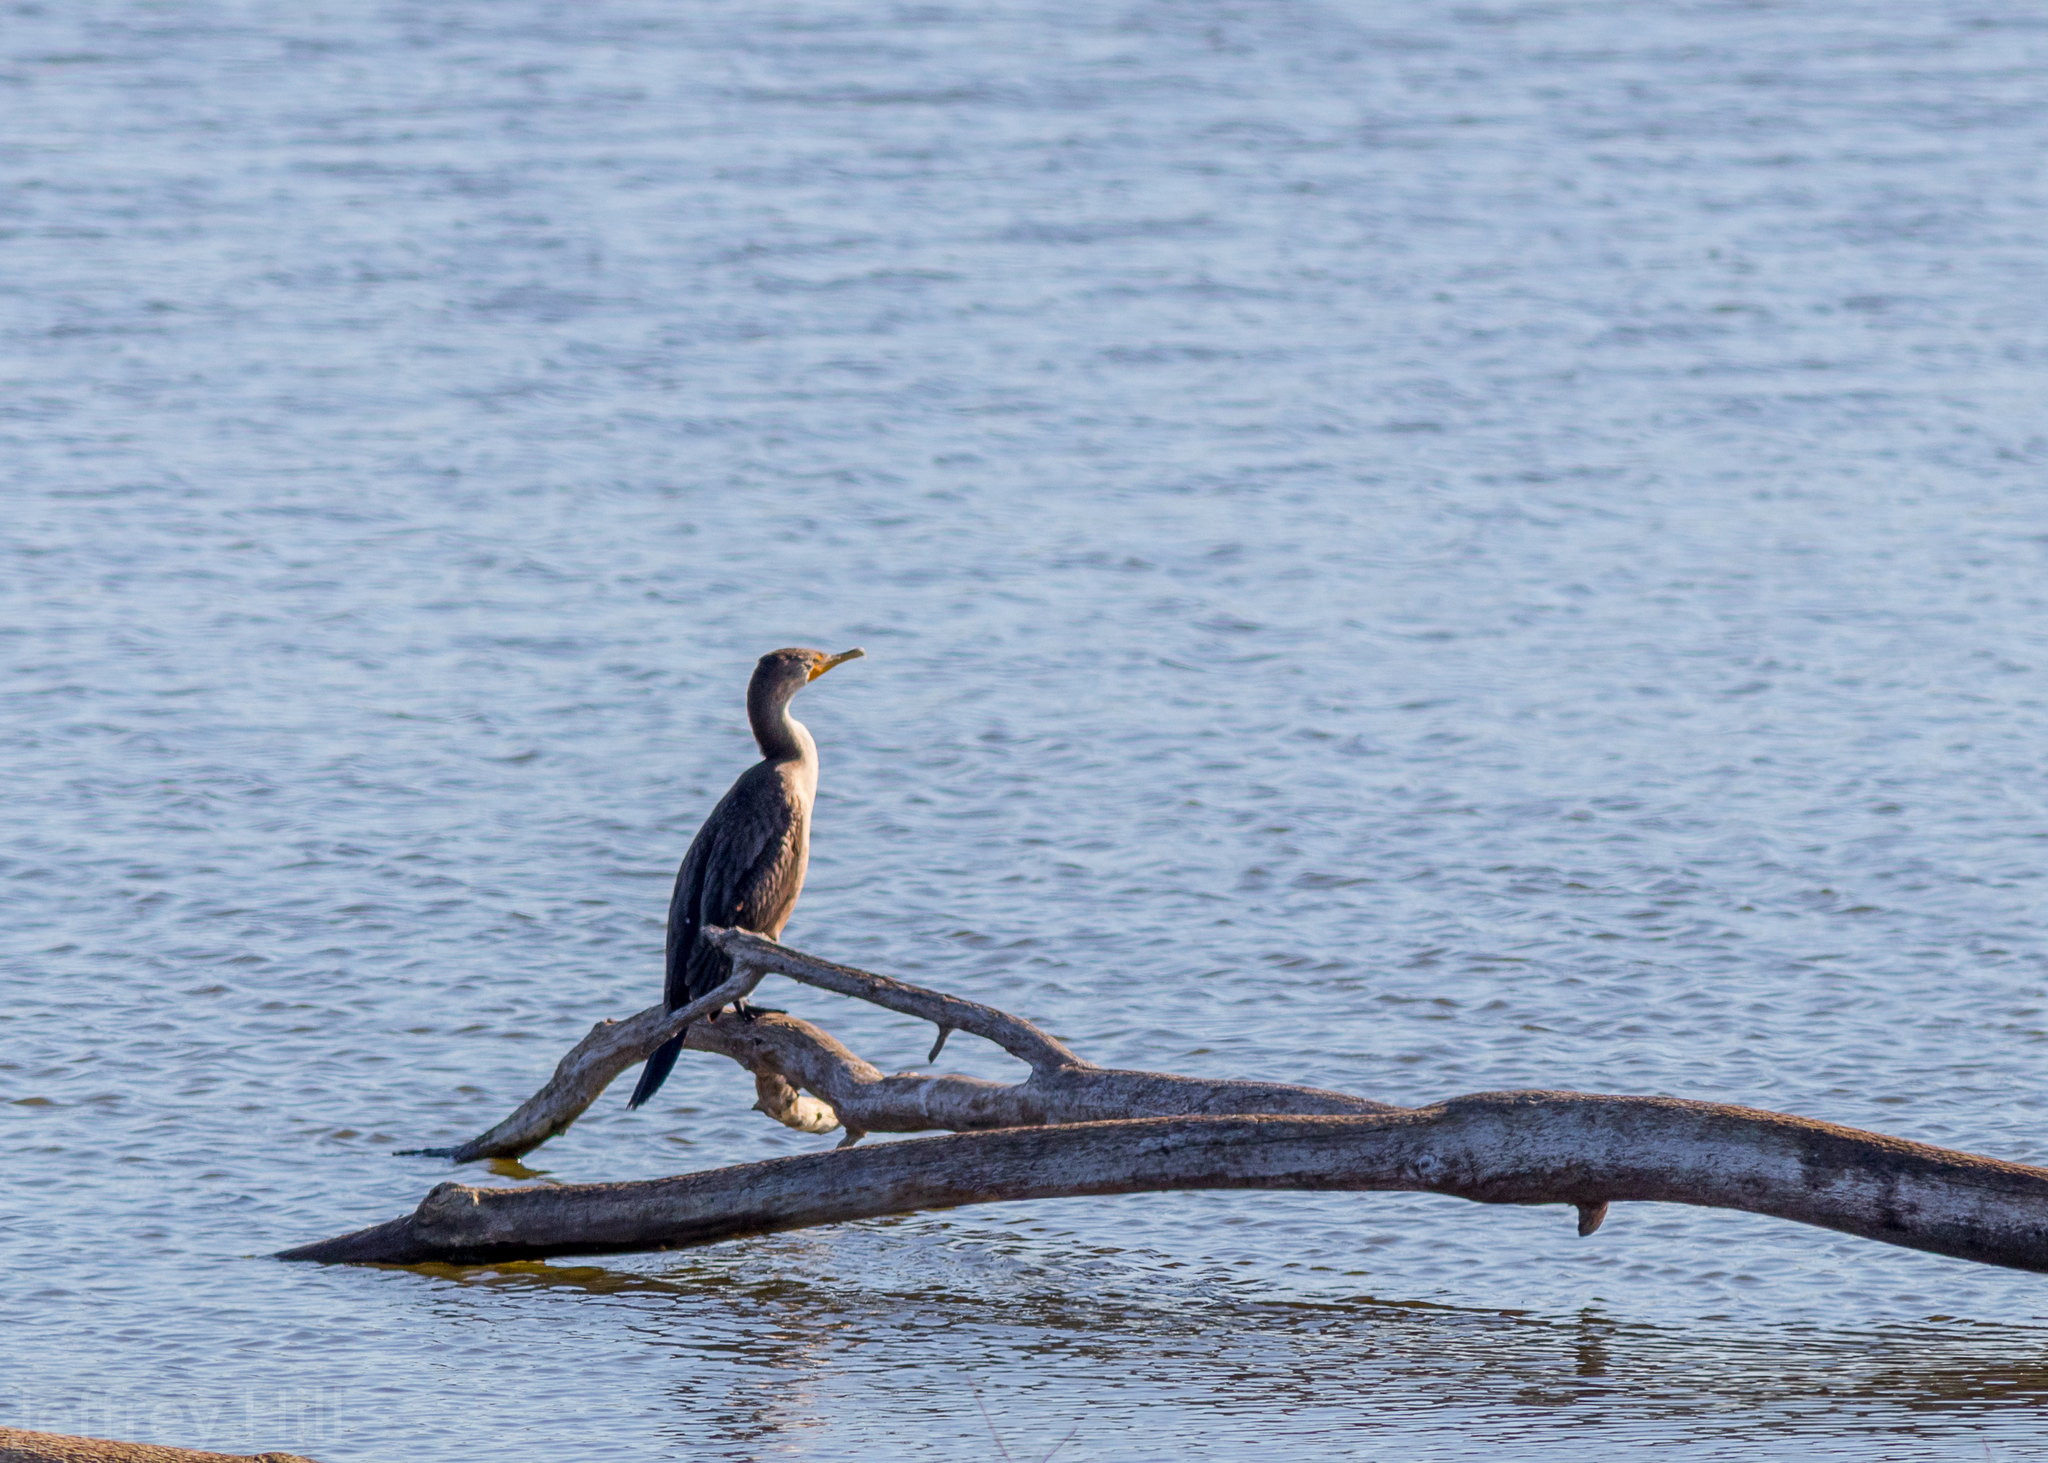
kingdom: Animalia
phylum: Chordata
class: Aves
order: Suliformes
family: Phalacrocoracidae
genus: Phalacrocorax
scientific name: Phalacrocorax auritus
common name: Double-crested cormorant
